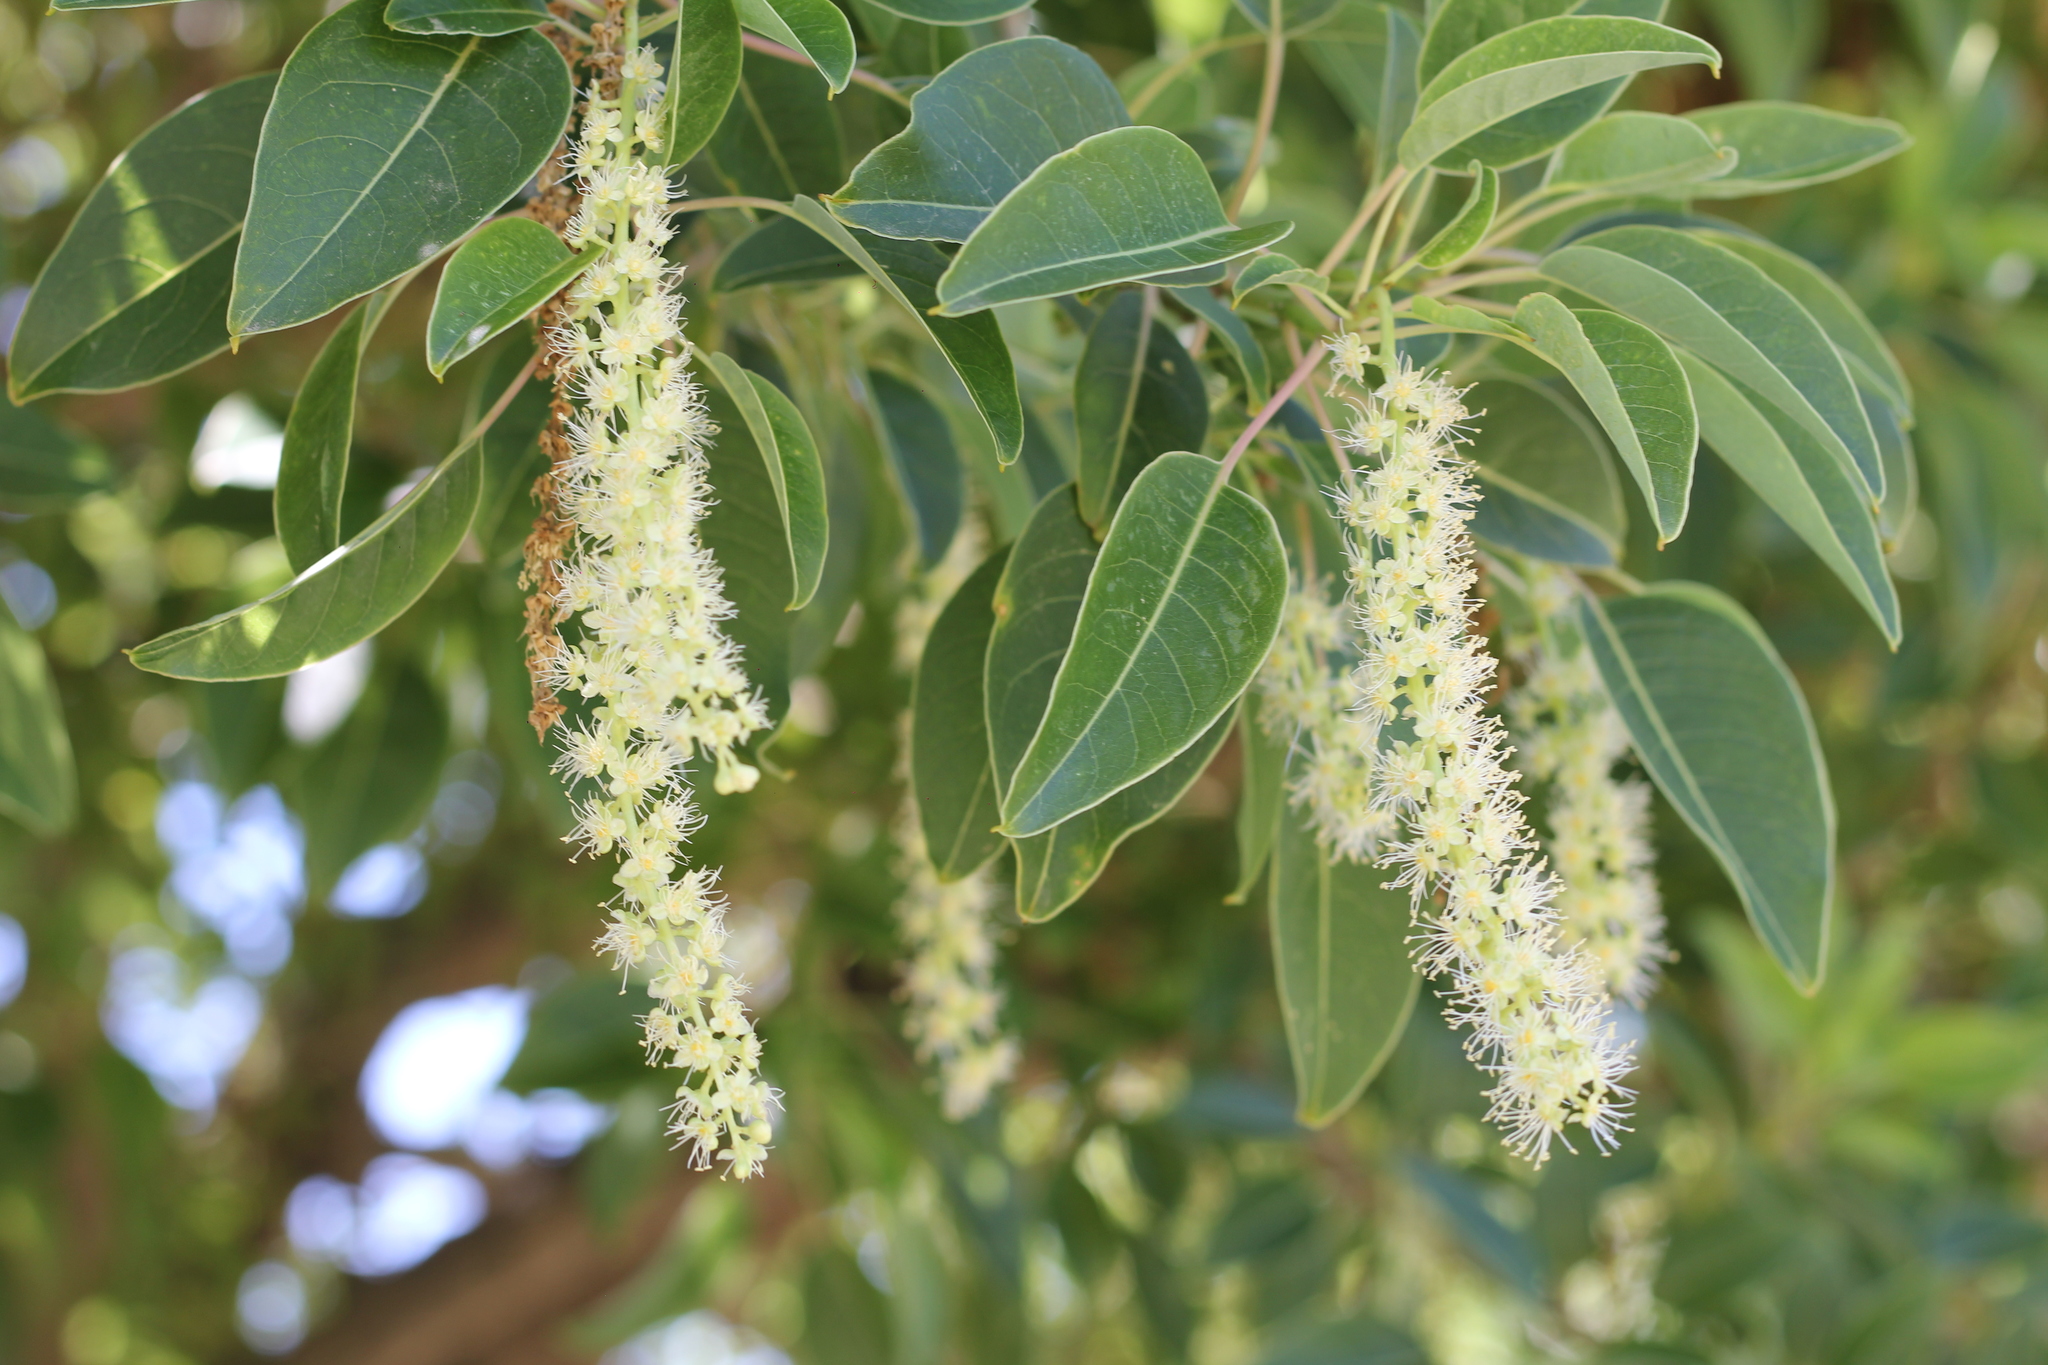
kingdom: Plantae
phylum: Tracheophyta
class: Magnoliopsida
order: Caryophyllales
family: Phytolaccaceae
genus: Phytolacca
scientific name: Phytolacca dioica
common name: Pokeweed
